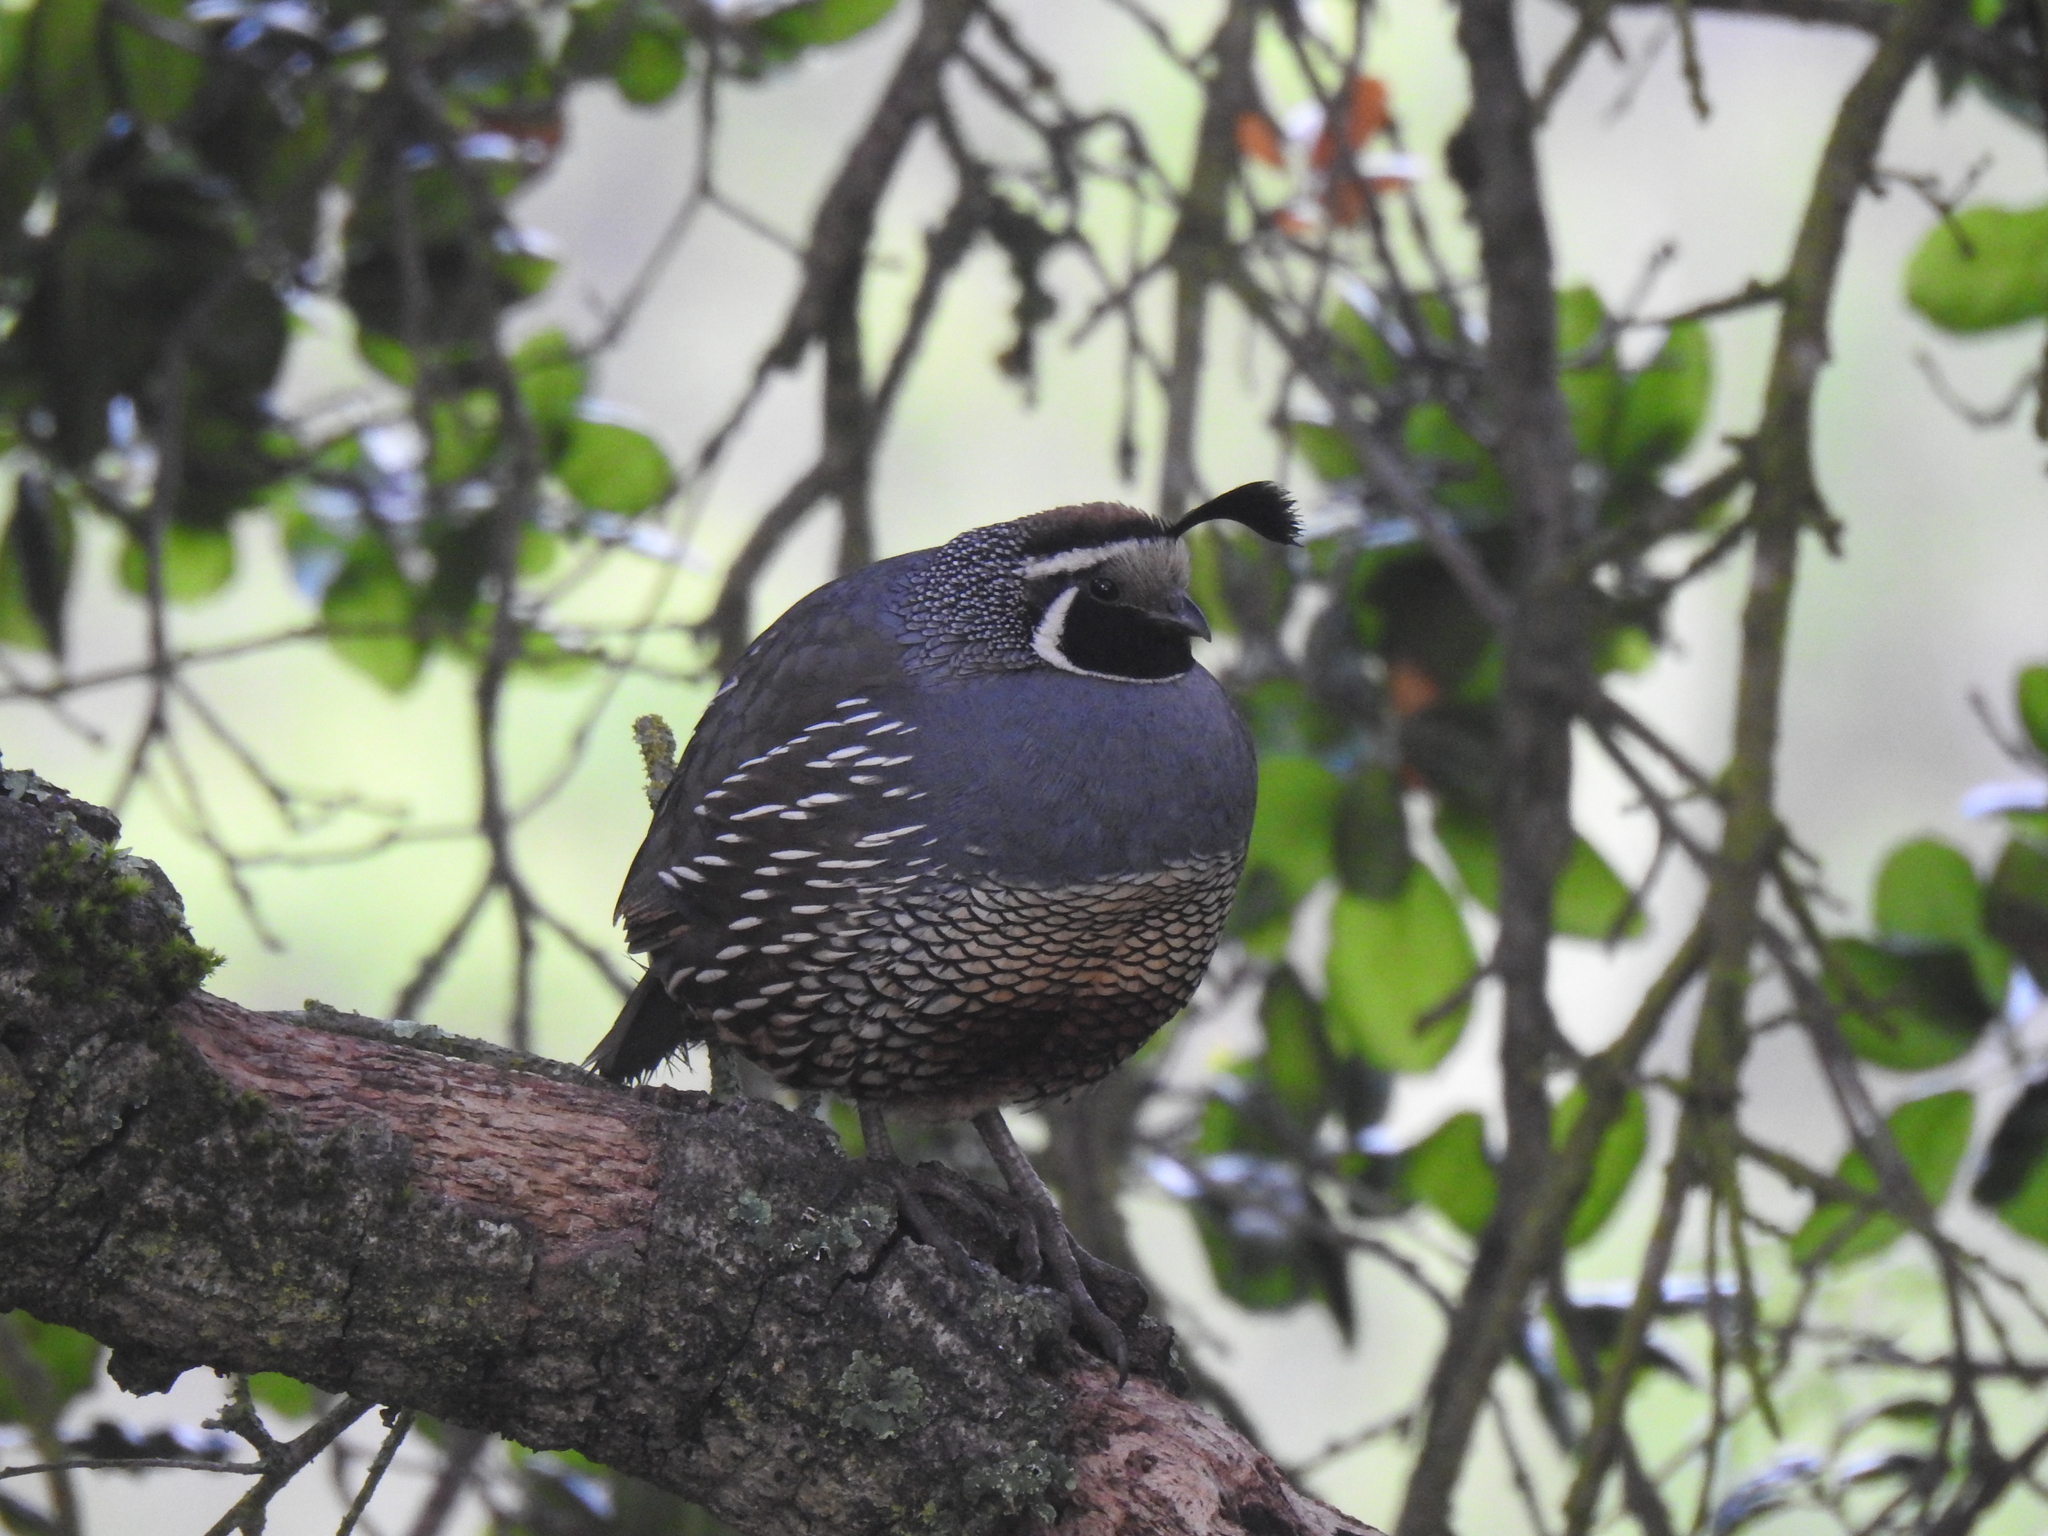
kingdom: Animalia
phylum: Chordata
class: Aves
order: Galliformes
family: Odontophoridae
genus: Callipepla
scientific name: Callipepla californica
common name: California quail
